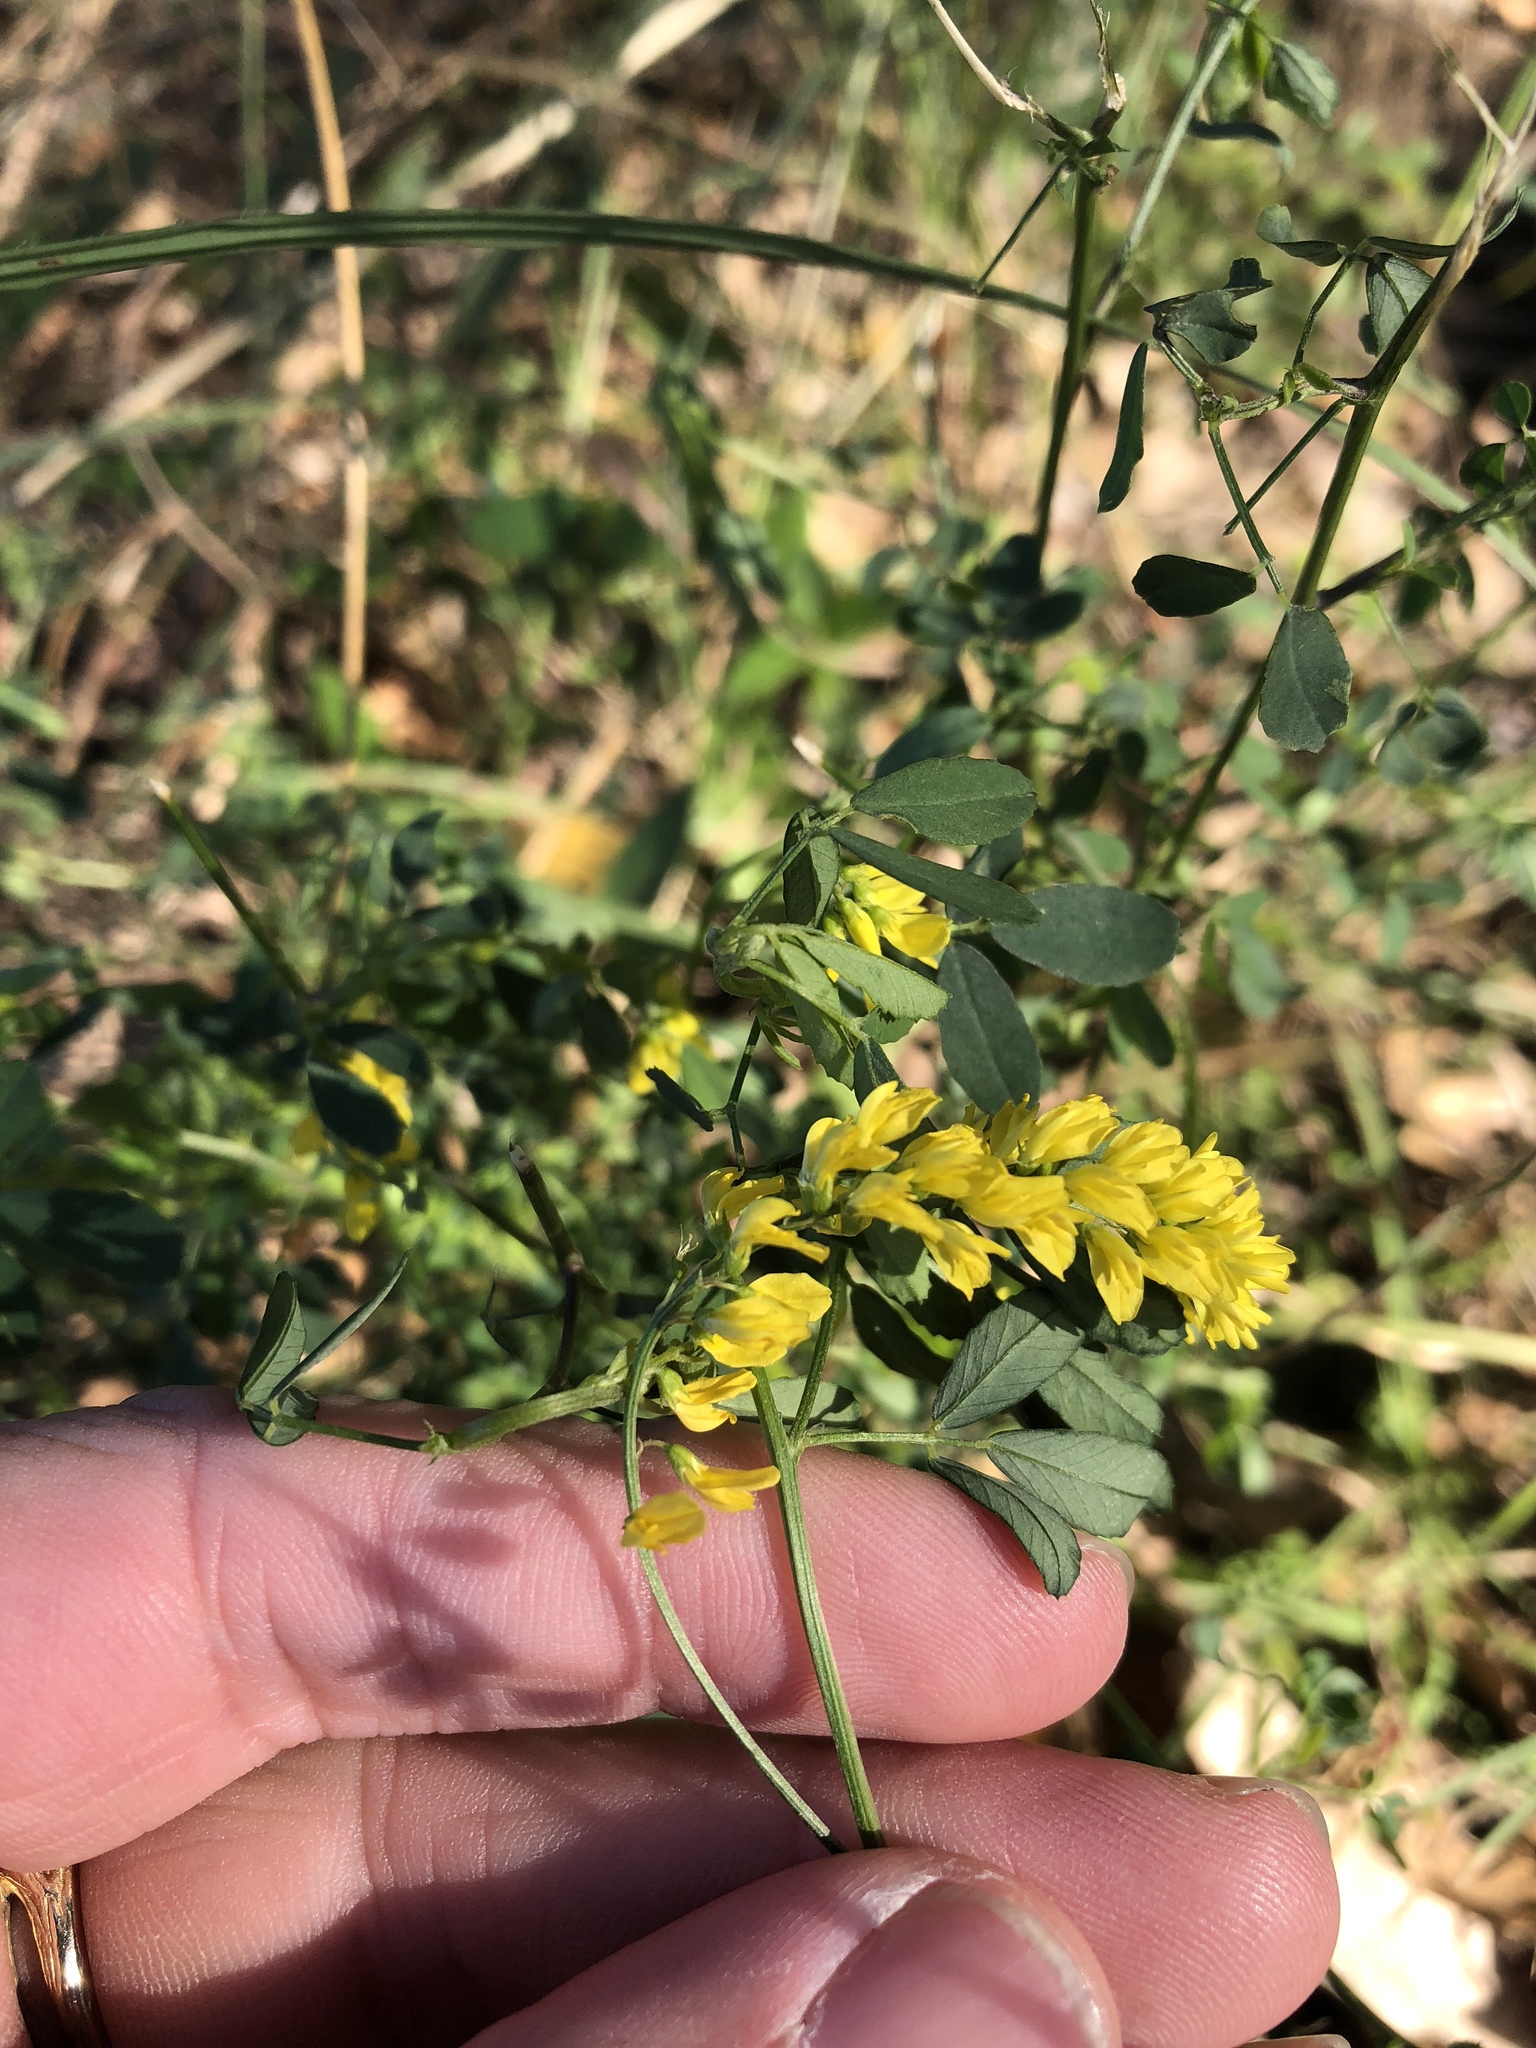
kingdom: Plantae
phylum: Tracheophyta
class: Magnoliopsida
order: Fabales
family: Fabaceae
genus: Melilotus
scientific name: Melilotus officinalis
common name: Sweetclover
